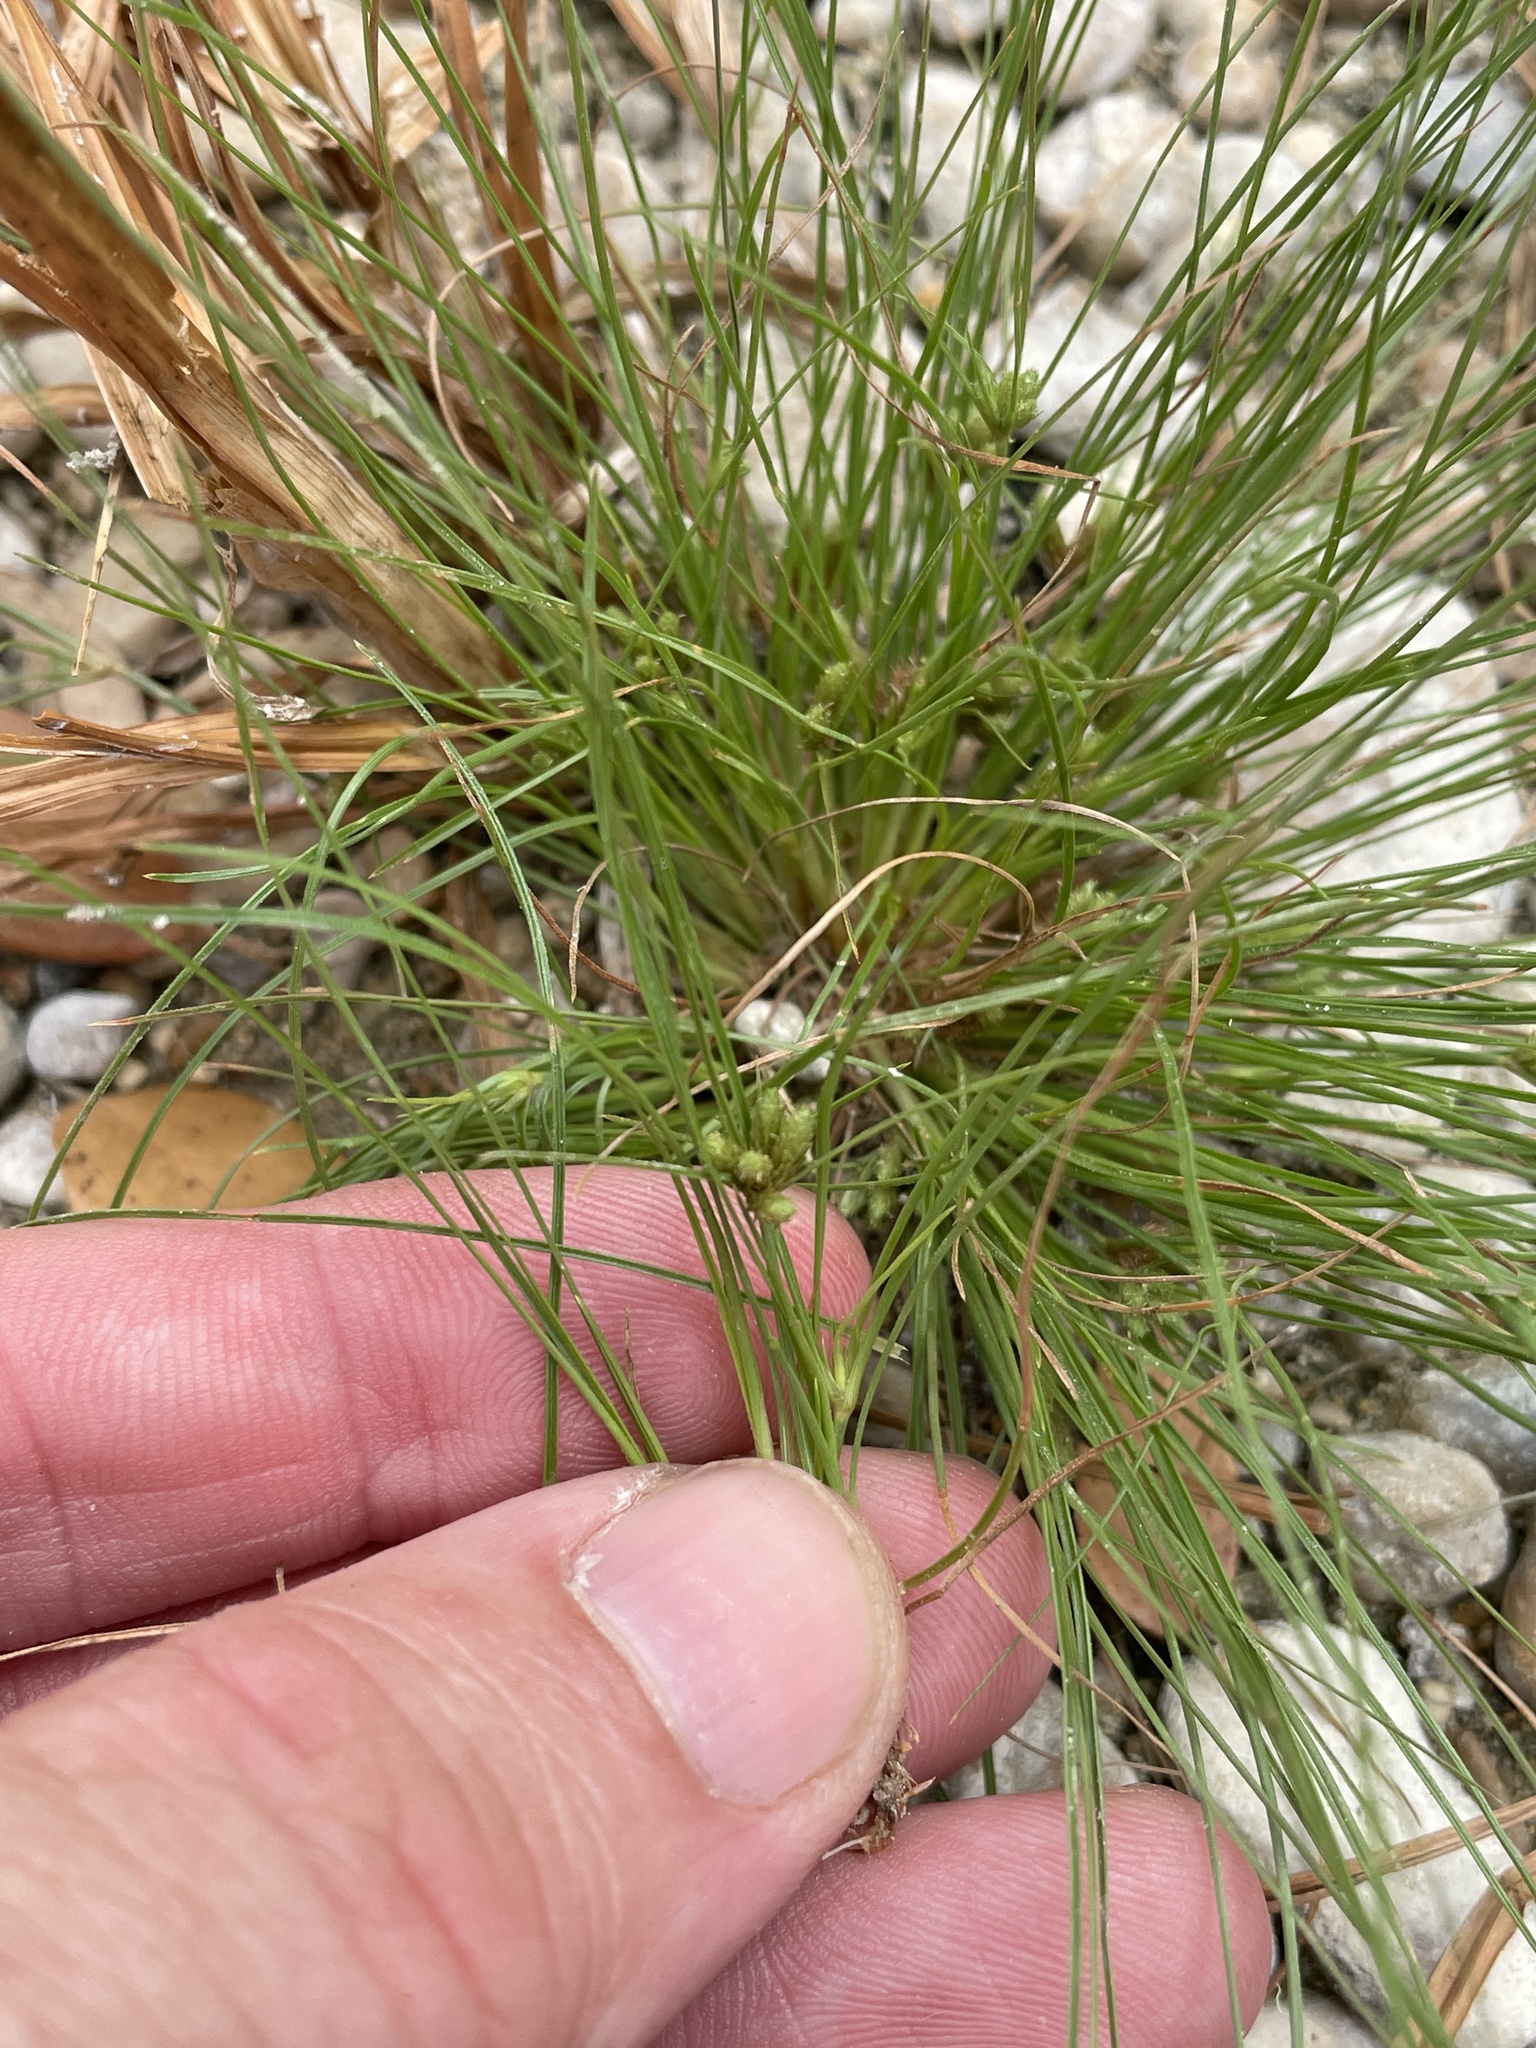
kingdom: Plantae
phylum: Tracheophyta
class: Liliopsida
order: Poales
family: Cyperaceae
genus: Fimbristylis
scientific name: Fimbristylis vahlii
